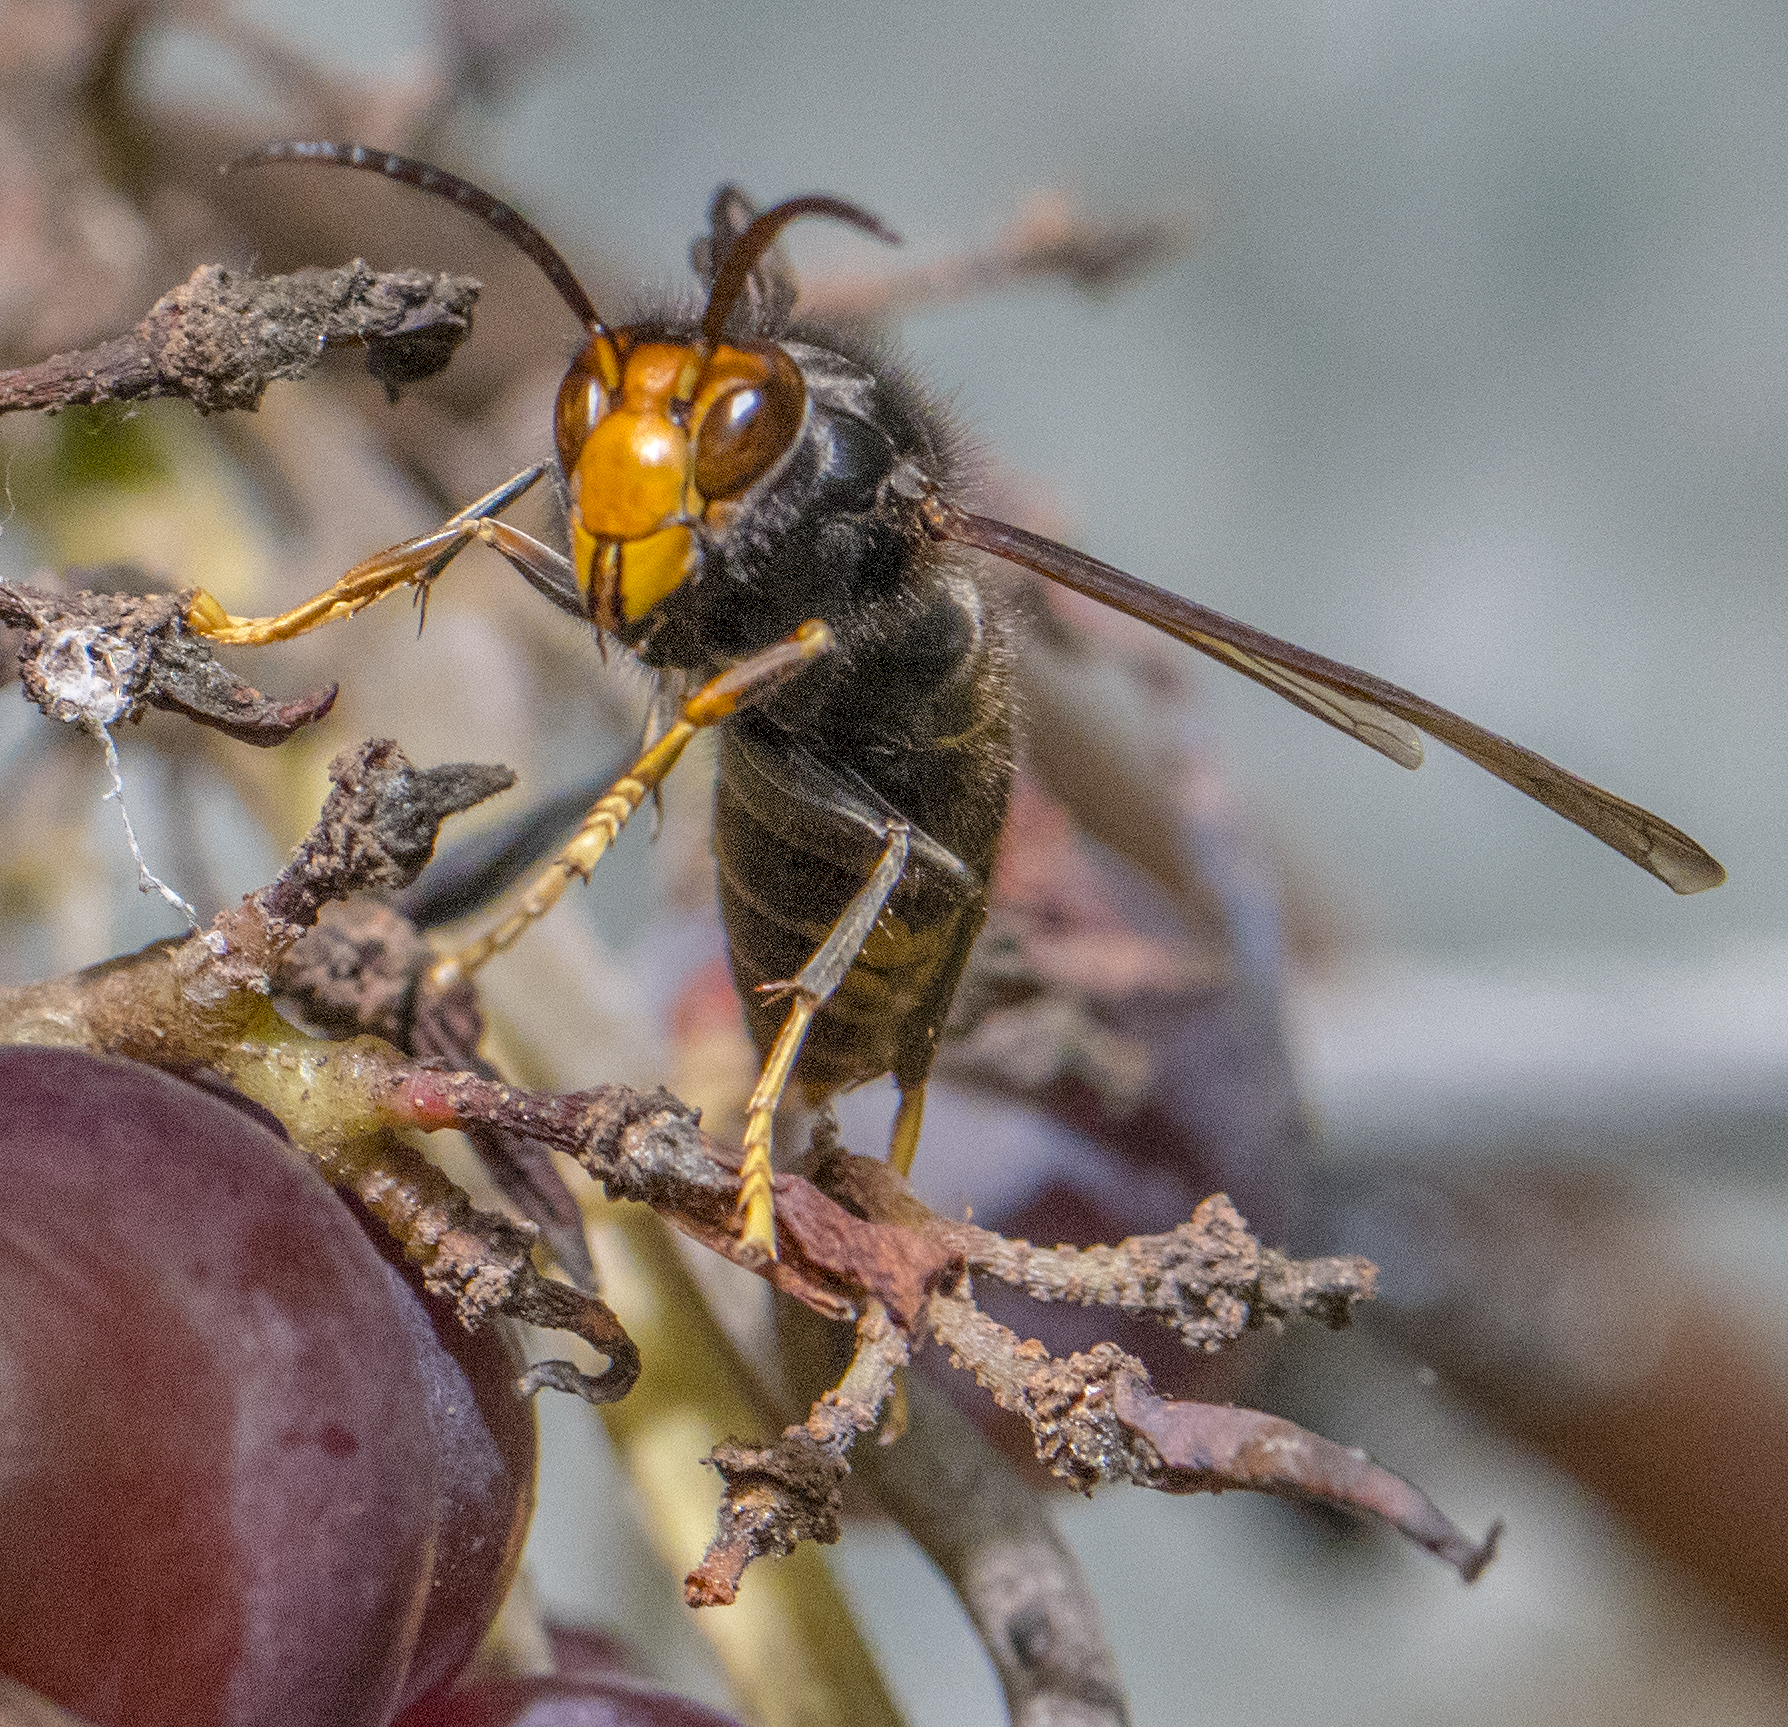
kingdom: Animalia
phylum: Arthropoda
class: Insecta
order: Hymenoptera
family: Vespidae
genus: Vespa
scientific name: Vespa velutina
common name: Asian hornet
